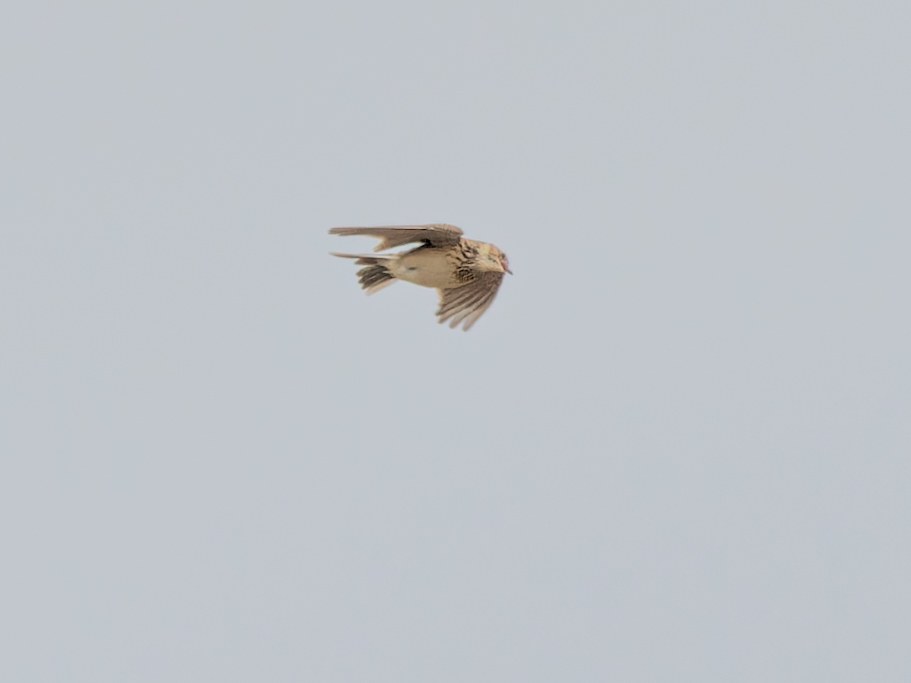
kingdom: Animalia
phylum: Chordata
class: Aves
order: Passeriformes
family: Alaudidae
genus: Alauda
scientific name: Alauda arvensis
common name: Eurasian skylark
